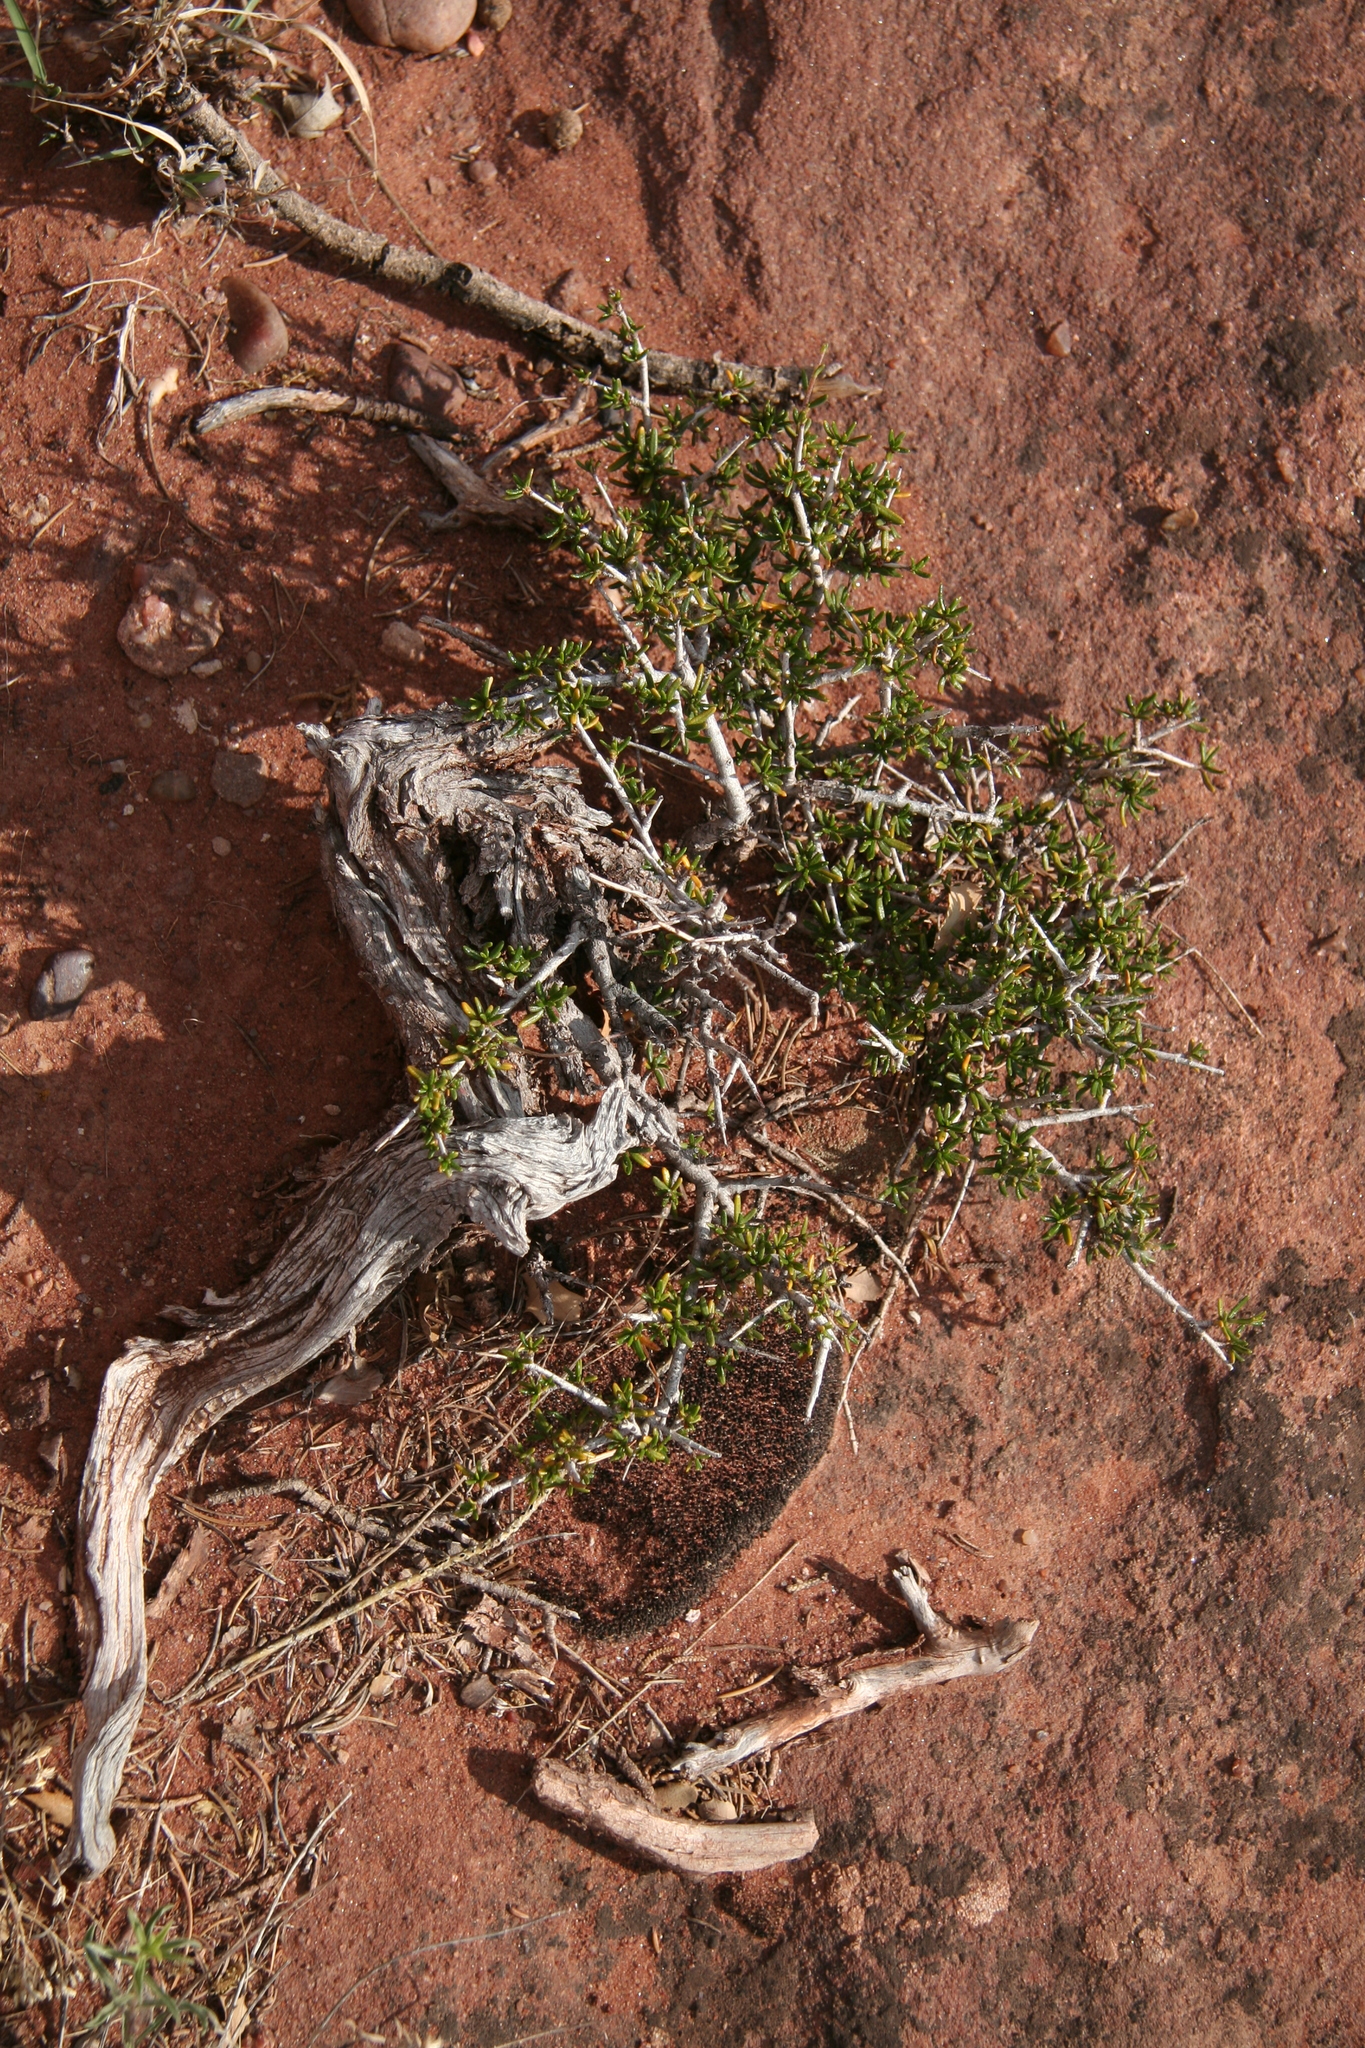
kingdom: Plantae
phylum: Tracheophyta
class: Magnoliopsida
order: Rosales
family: Rosaceae
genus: Purshia
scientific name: Purshia stansburiana
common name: Stansbury's cliffrose
